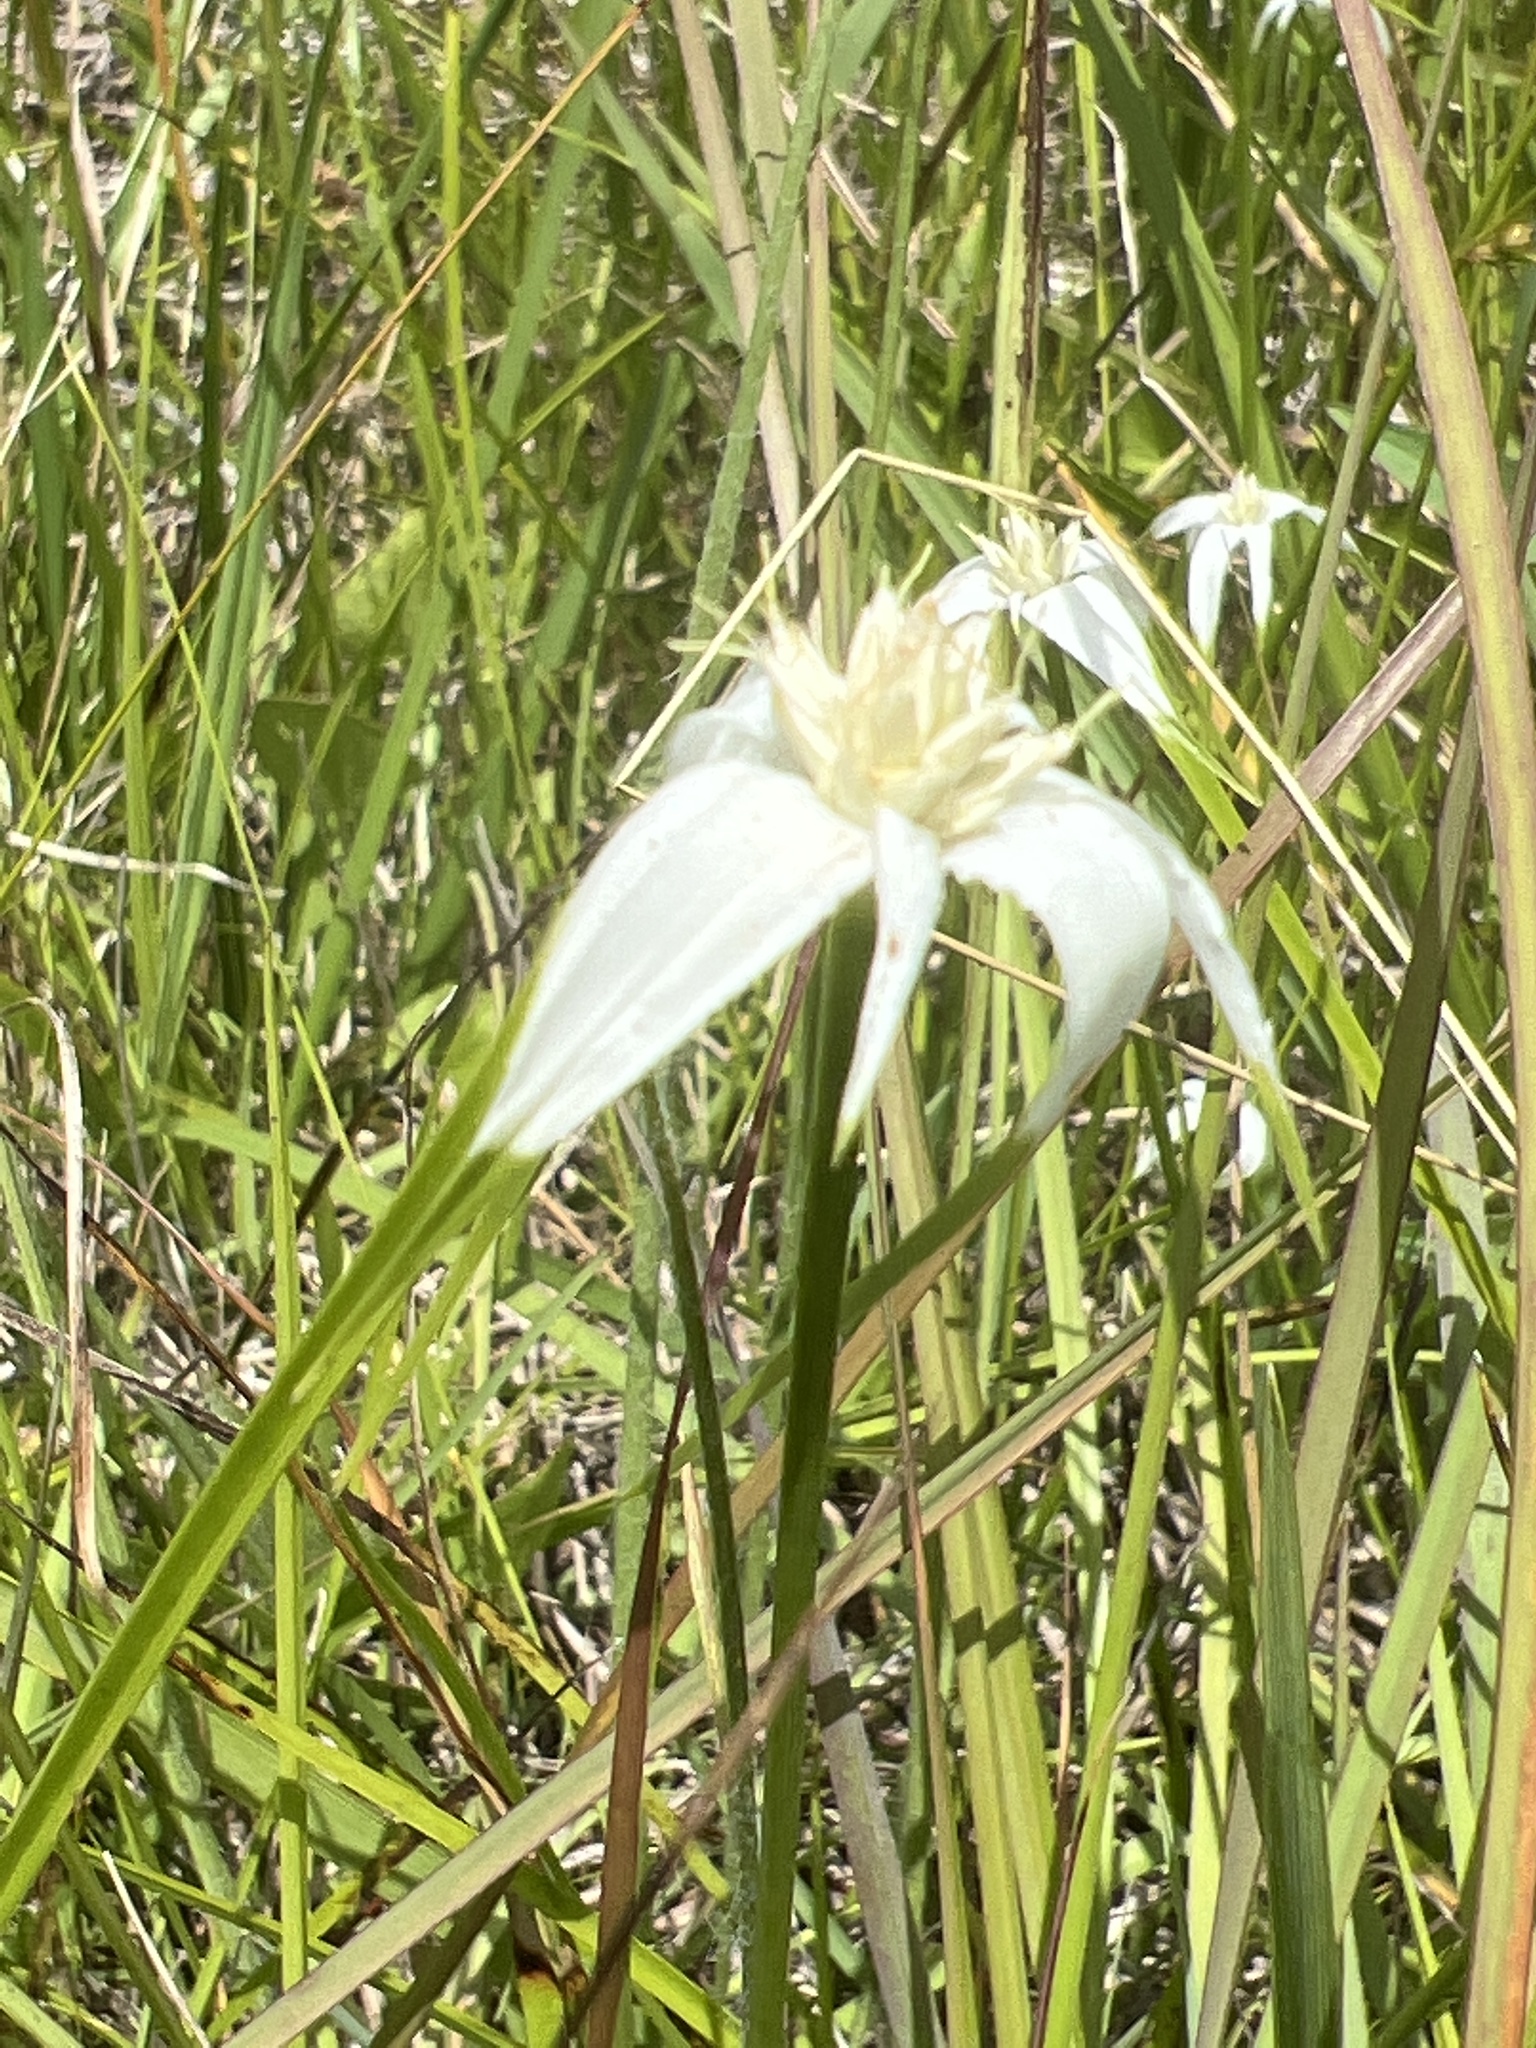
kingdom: Plantae
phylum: Tracheophyta
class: Liliopsida
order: Poales
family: Cyperaceae
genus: Rhynchospora
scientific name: Rhynchospora colorata
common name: Star sedge
